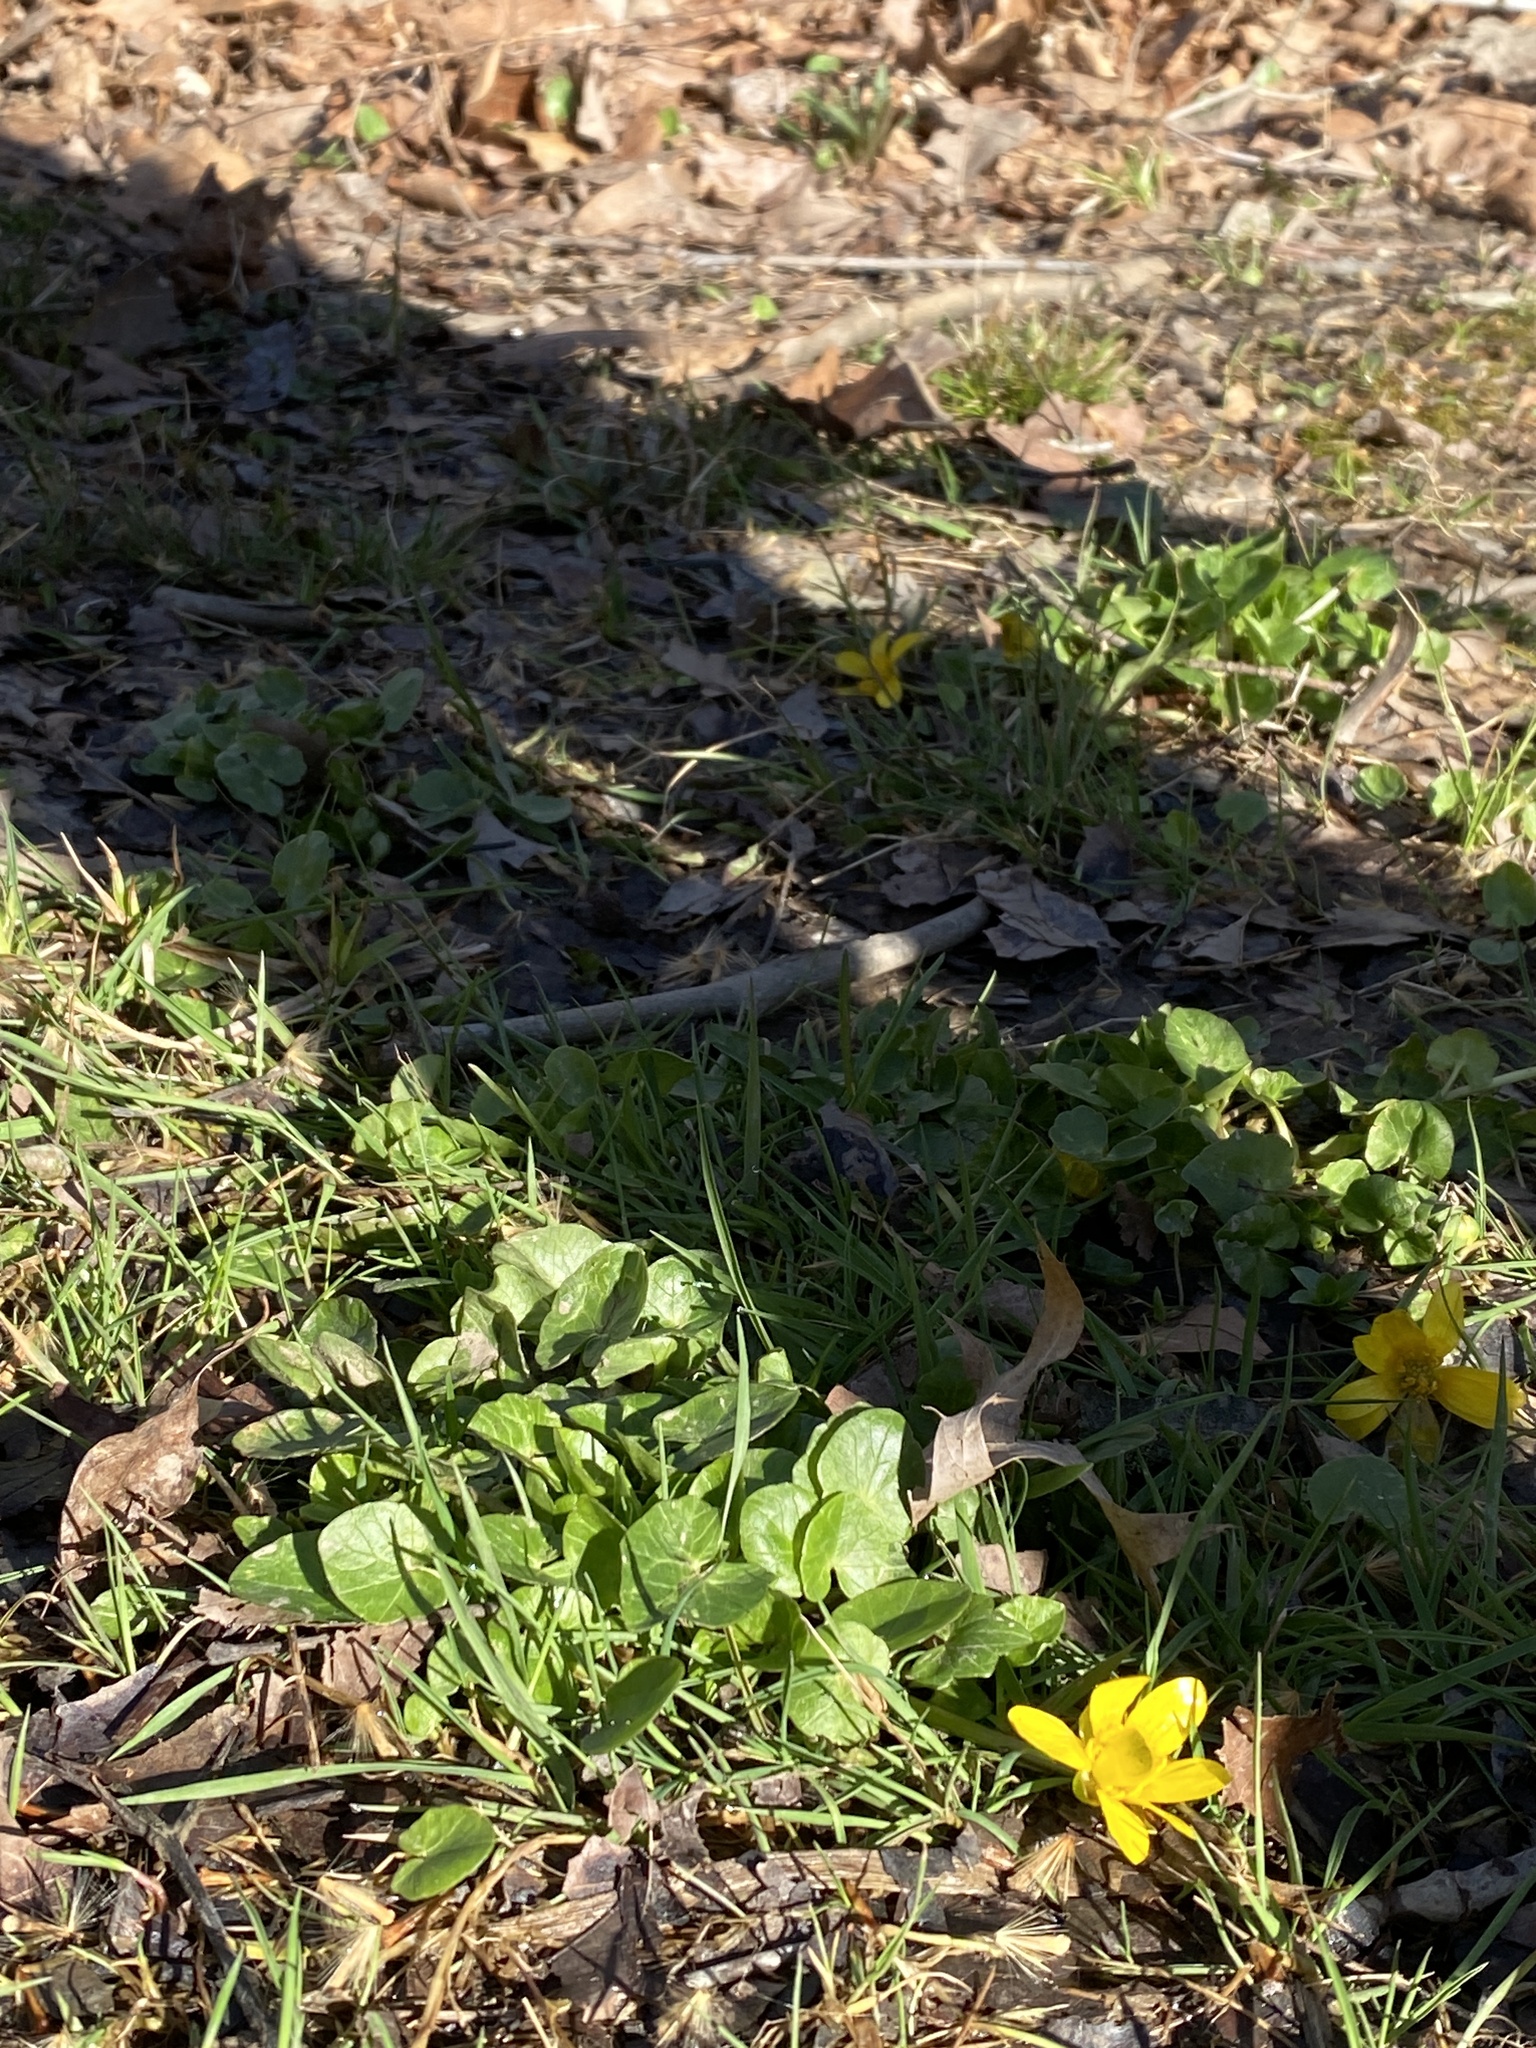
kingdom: Plantae
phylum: Tracheophyta
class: Magnoliopsida
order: Ranunculales
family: Ranunculaceae
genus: Ficaria
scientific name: Ficaria verna
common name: Lesser celandine
